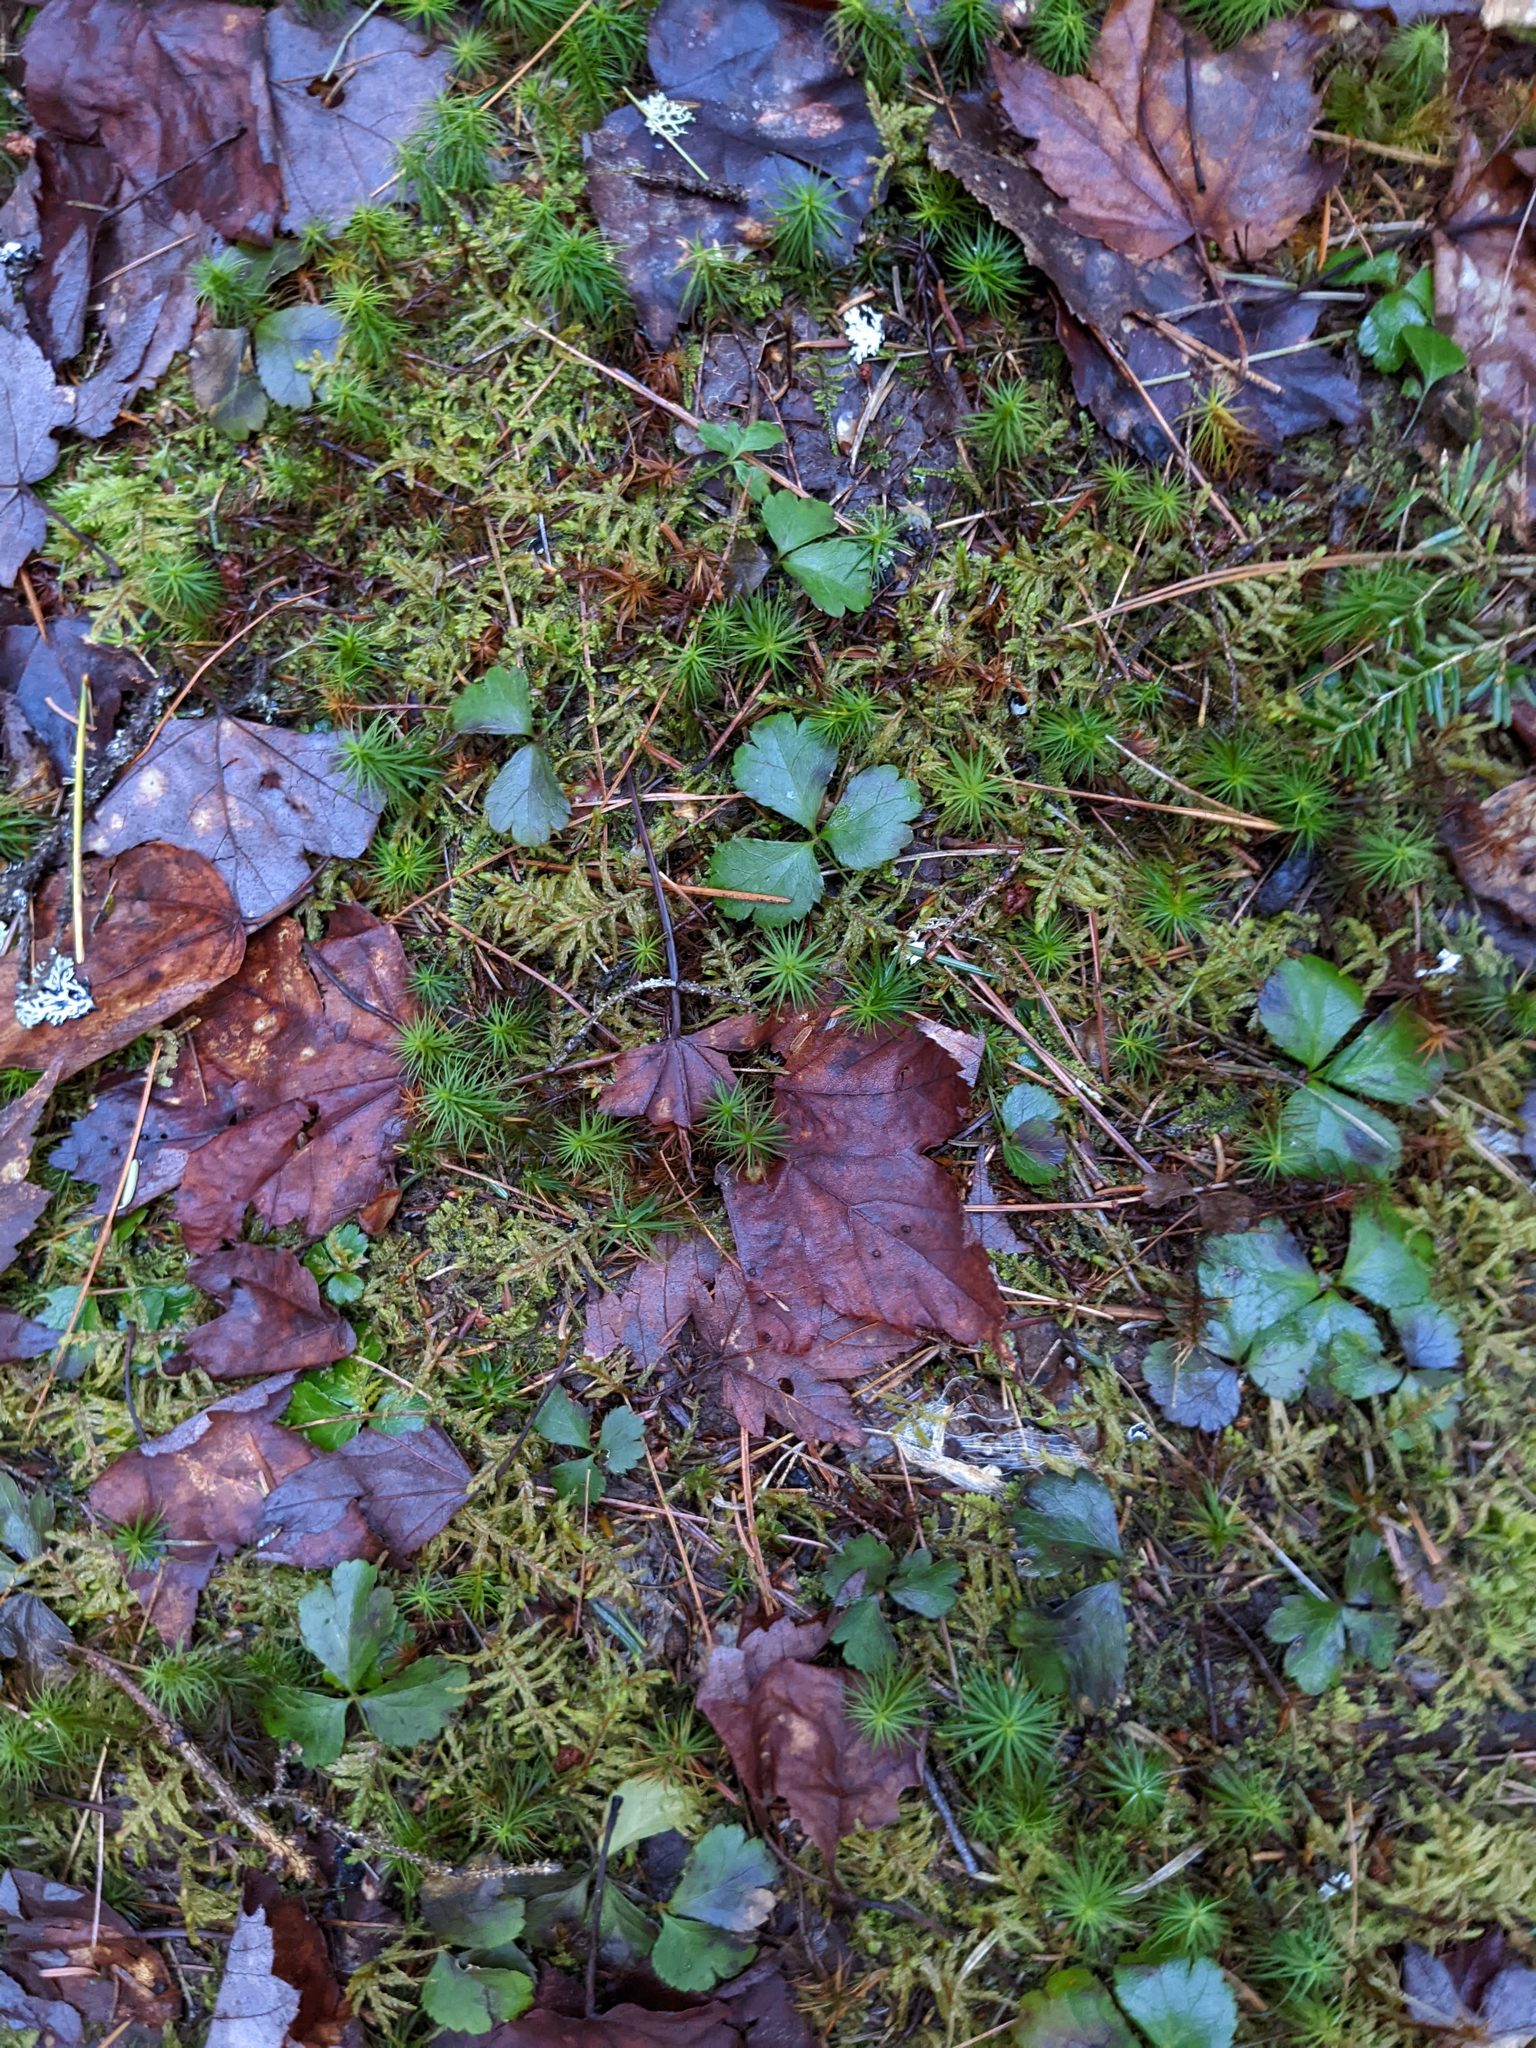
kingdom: Plantae
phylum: Tracheophyta
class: Magnoliopsida
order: Ranunculales
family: Ranunculaceae
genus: Coptis
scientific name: Coptis trifolia
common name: Canker-root
